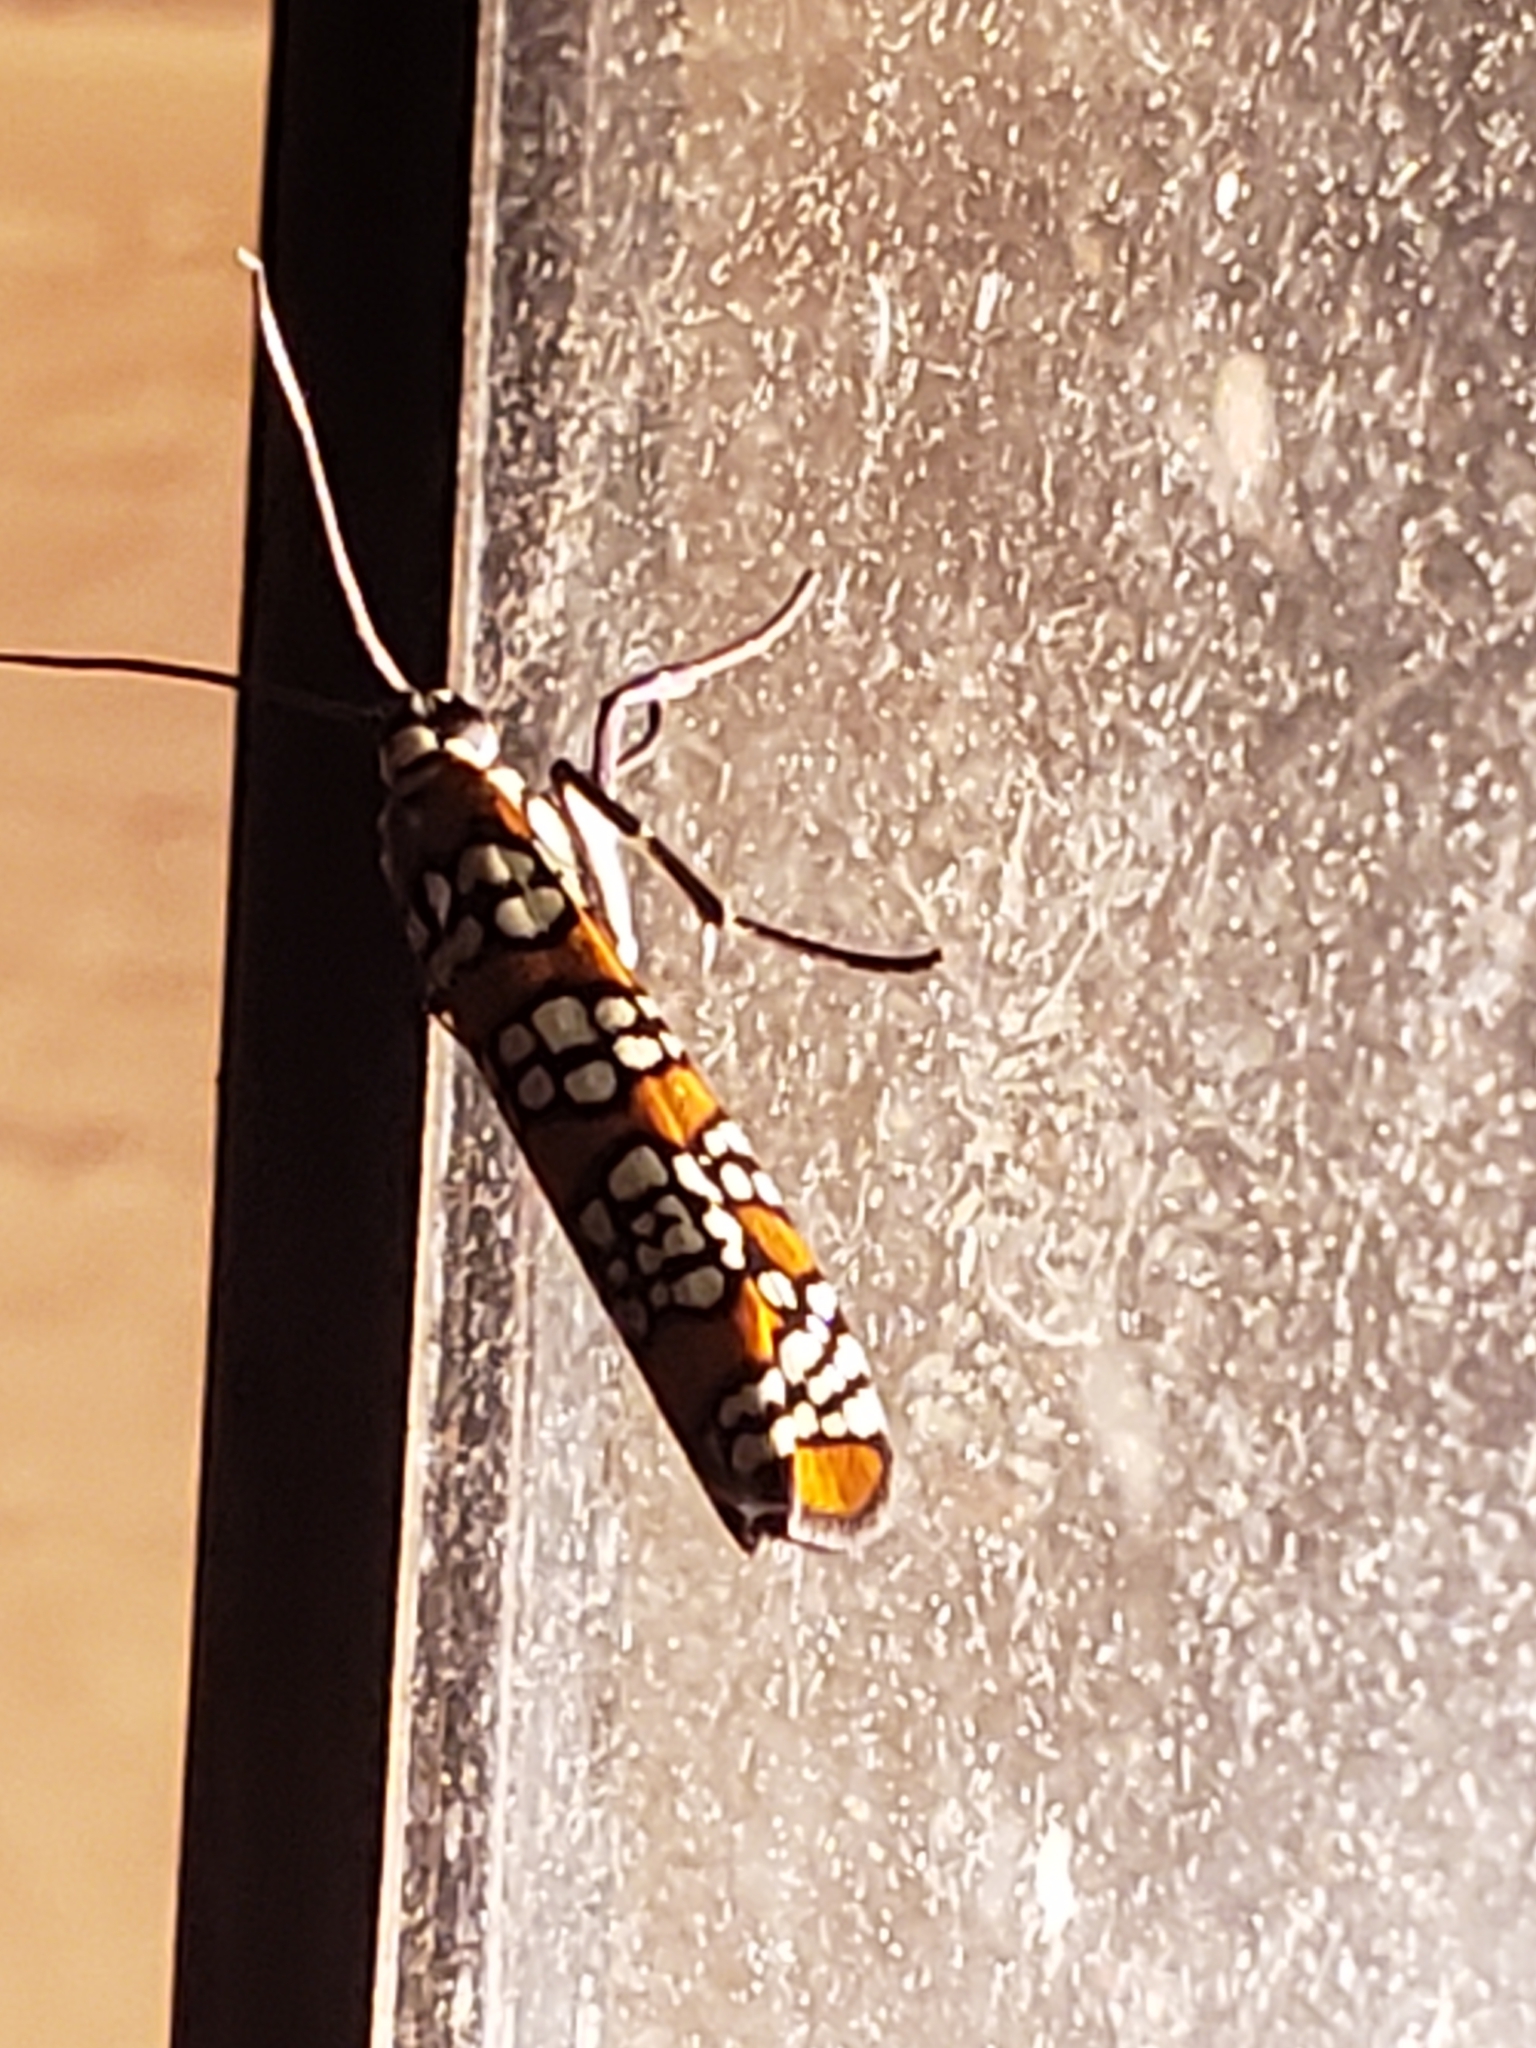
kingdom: Animalia
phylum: Arthropoda
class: Insecta
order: Lepidoptera
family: Attevidae
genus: Atteva
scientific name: Atteva punctella
